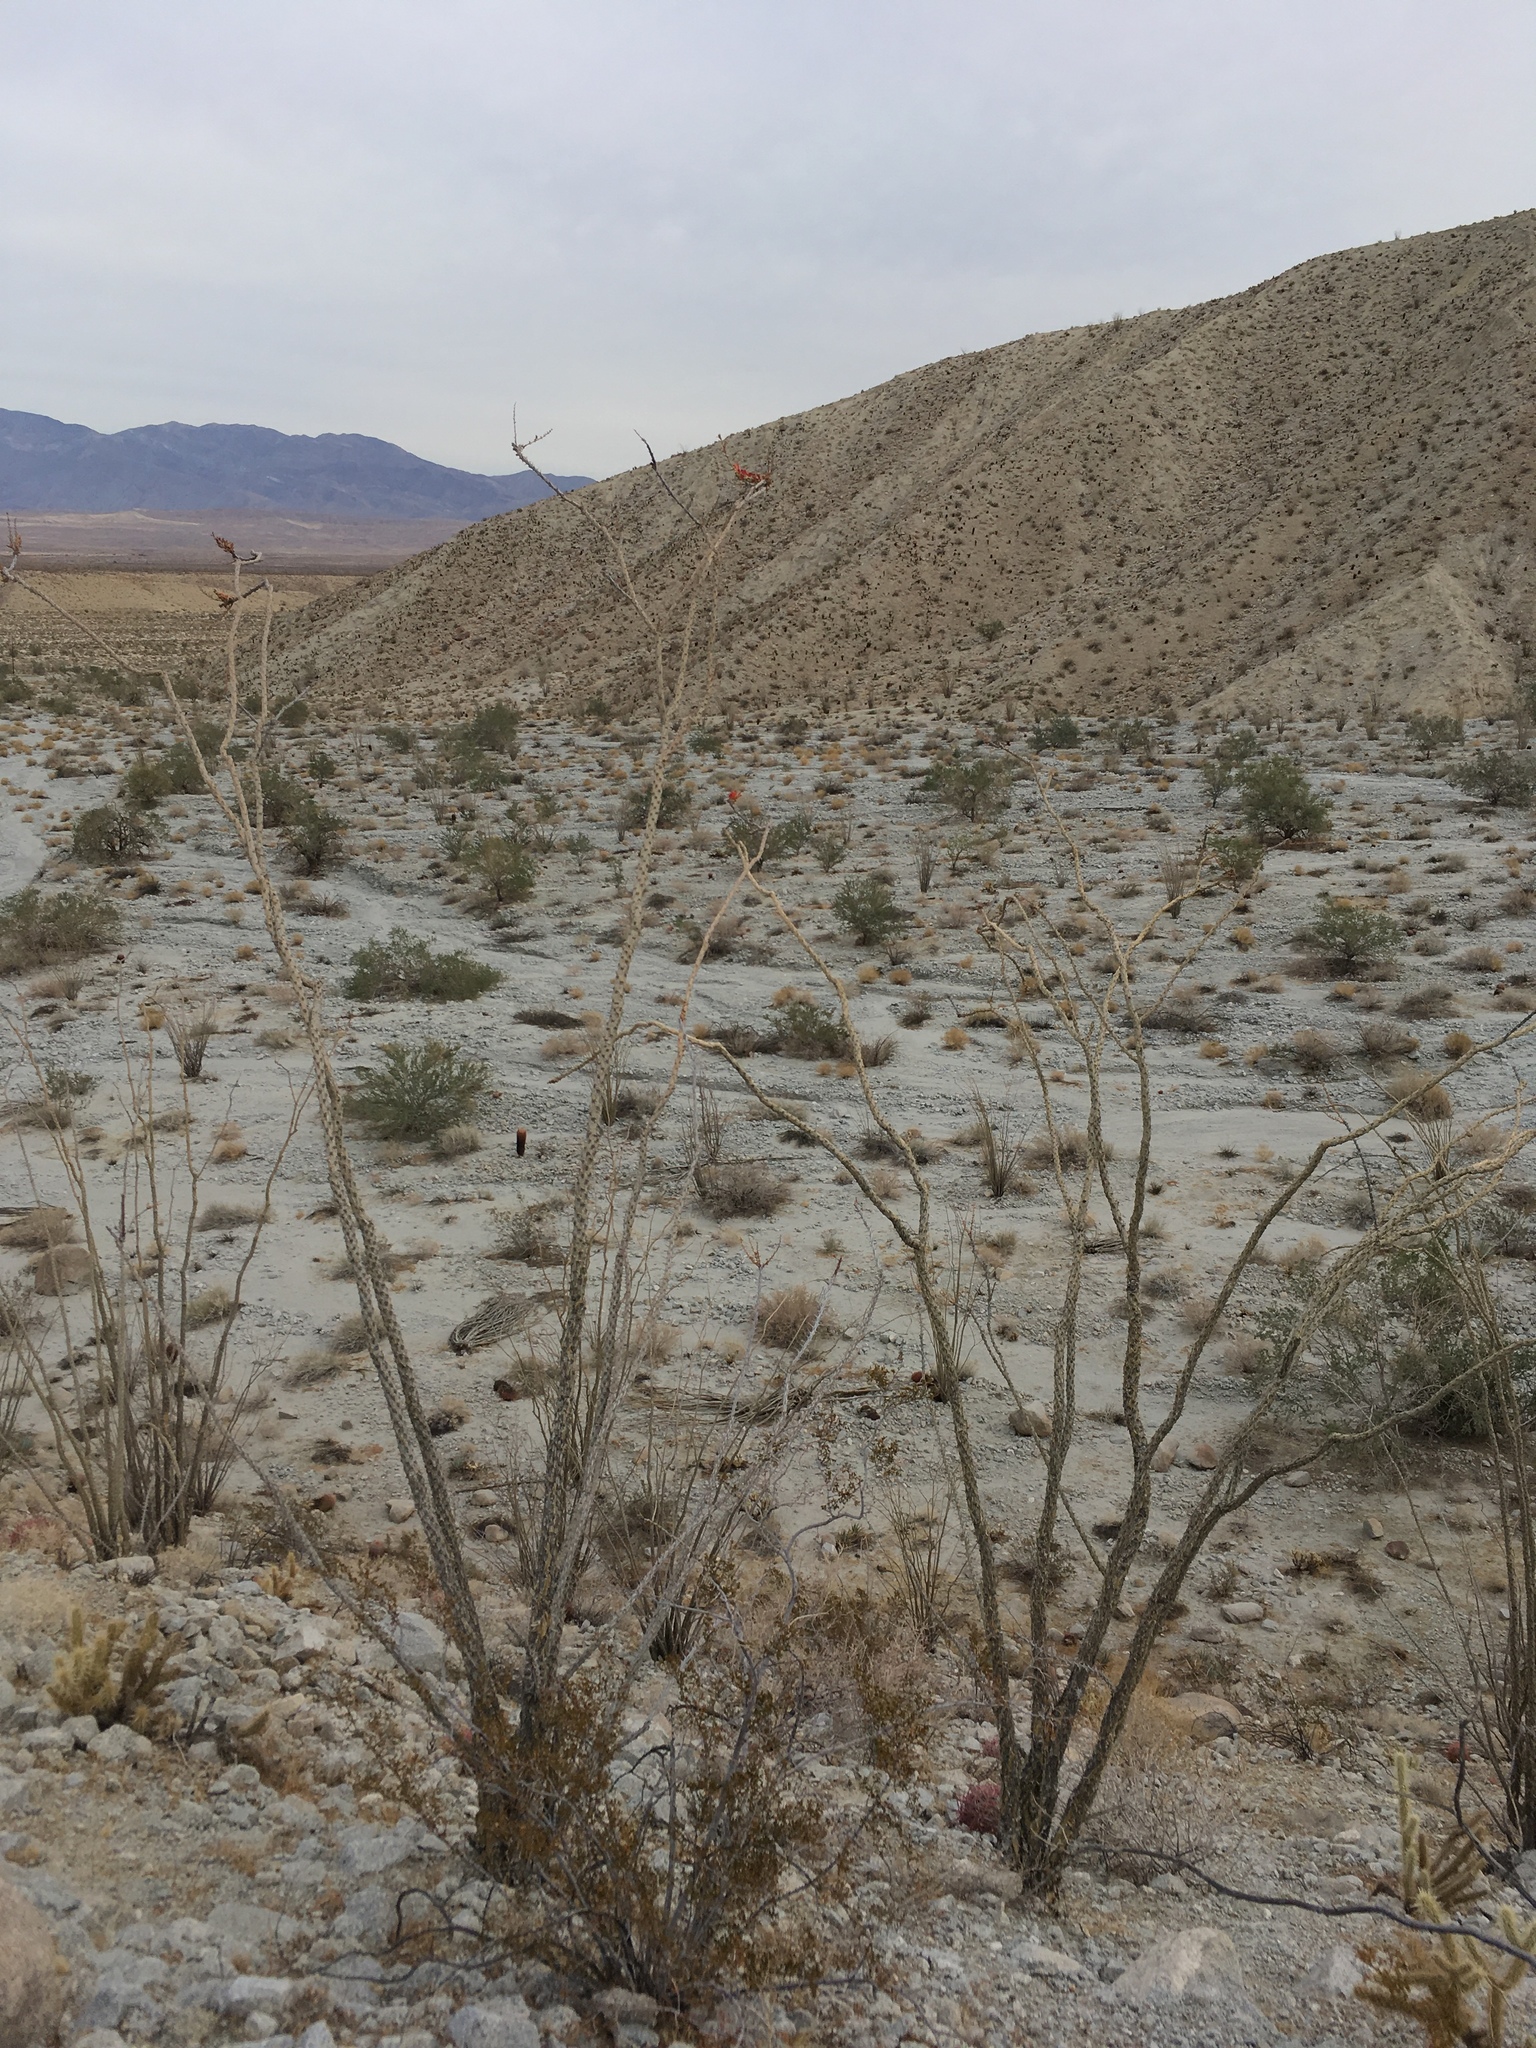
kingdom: Plantae
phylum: Tracheophyta
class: Magnoliopsida
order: Ericales
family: Fouquieriaceae
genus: Fouquieria
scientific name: Fouquieria splendens
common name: Vine-cactus
